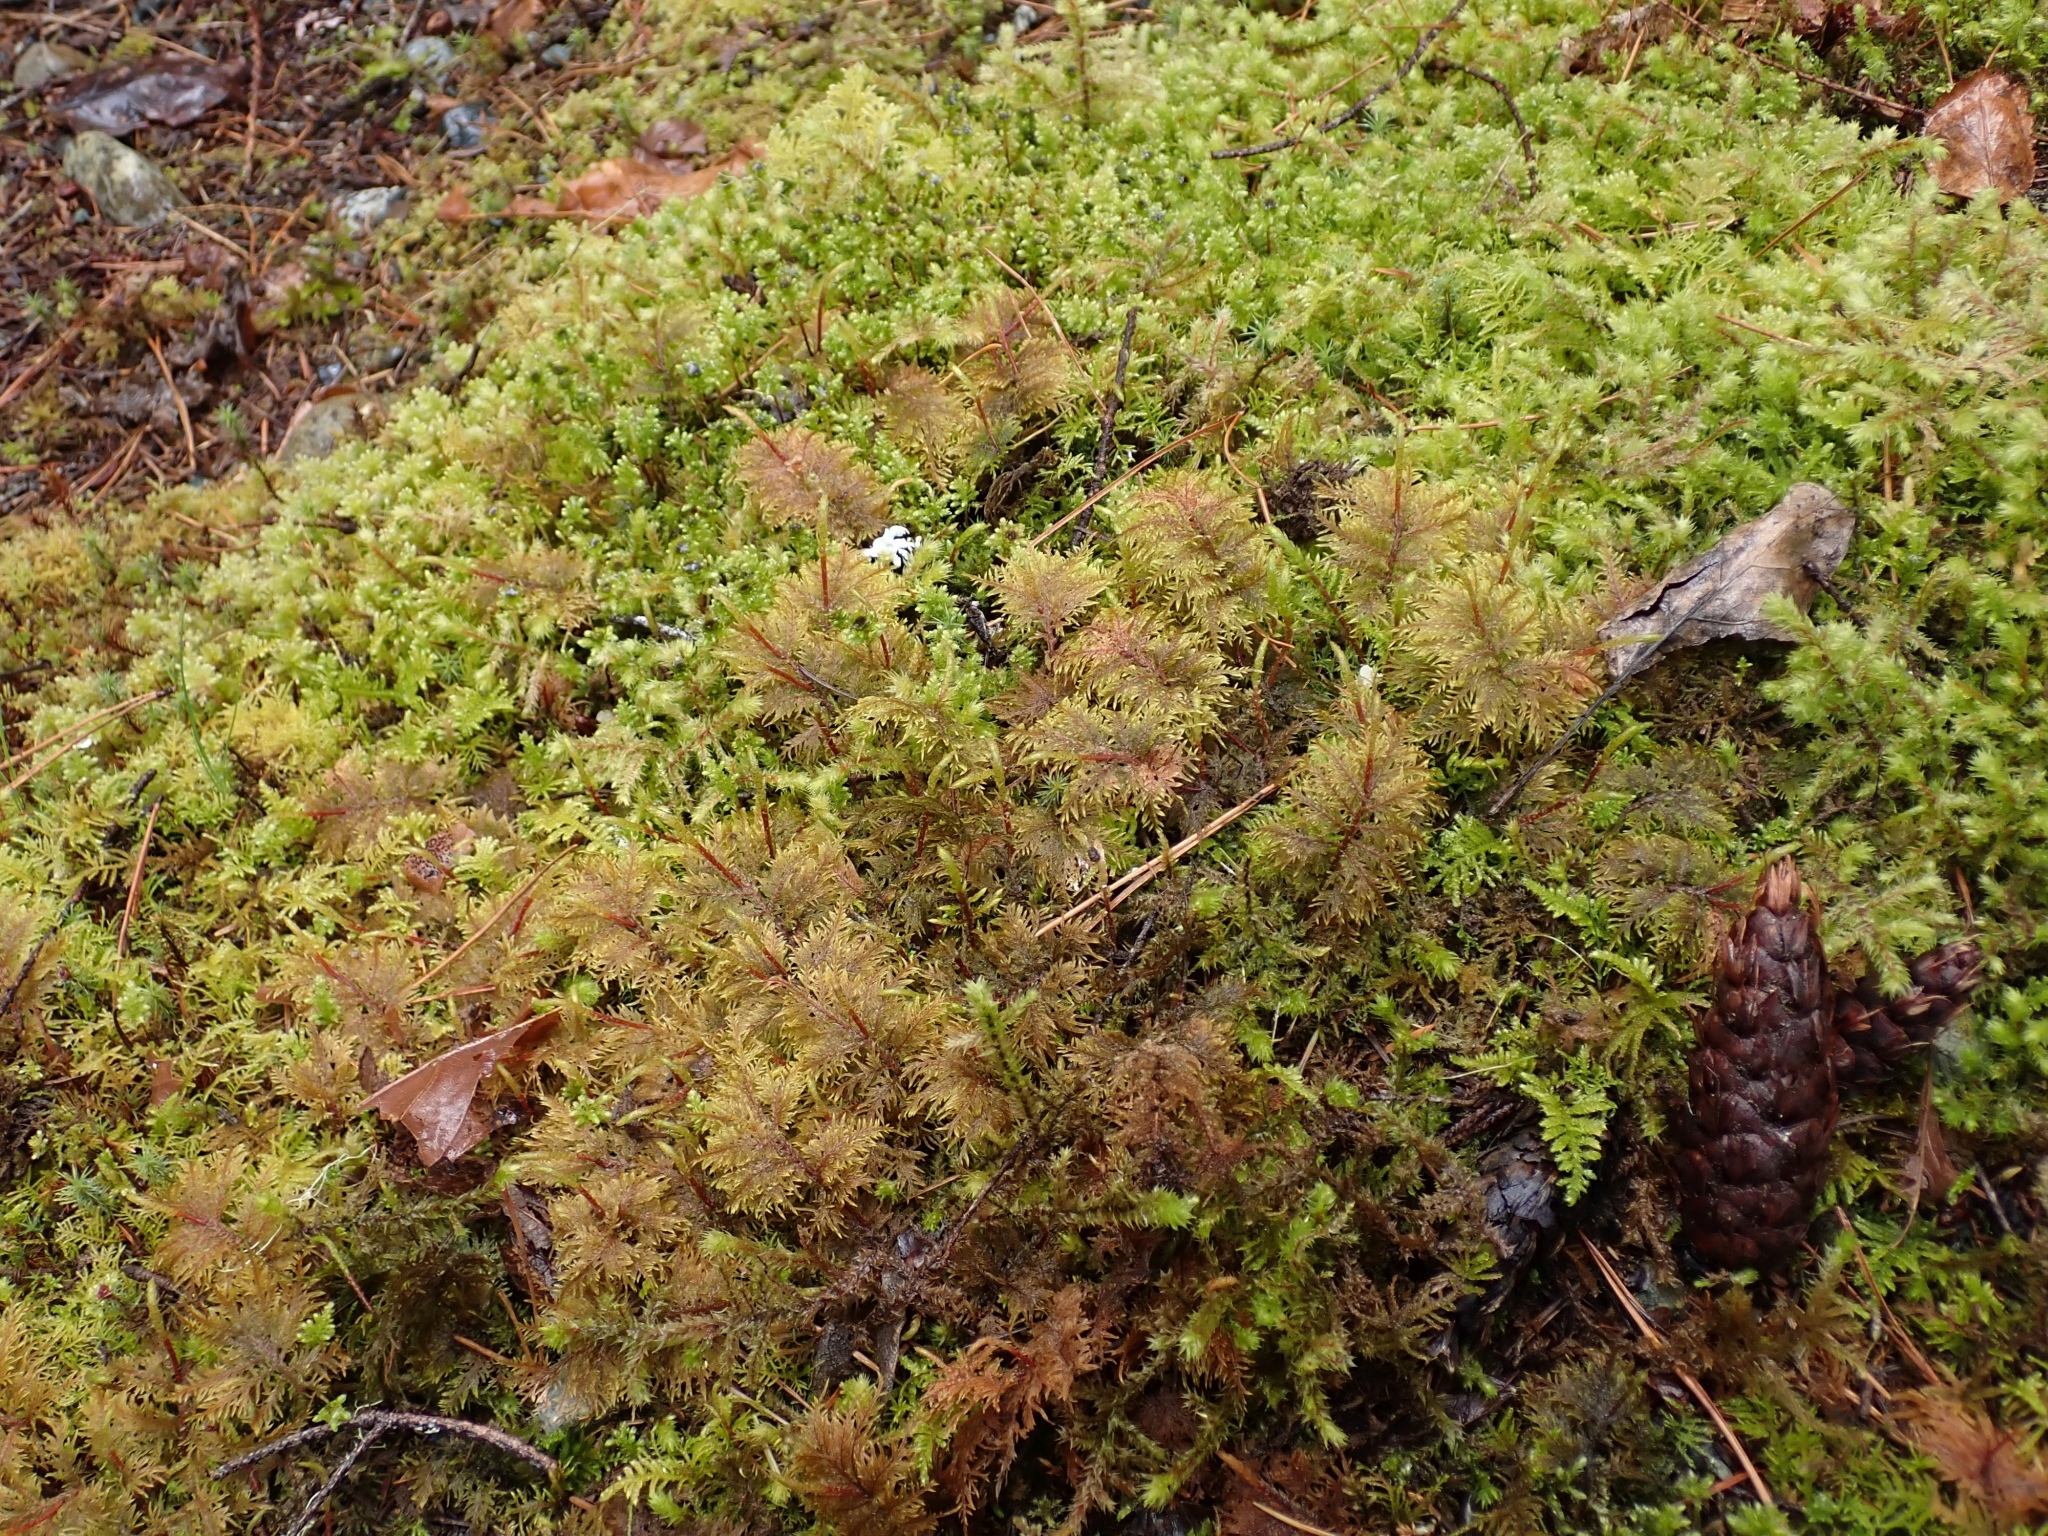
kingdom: Plantae
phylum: Bryophyta
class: Bryopsida
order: Hypnales
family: Hylocomiaceae
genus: Hylocomium
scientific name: Hylocomium splendens
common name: Stairstep moss
